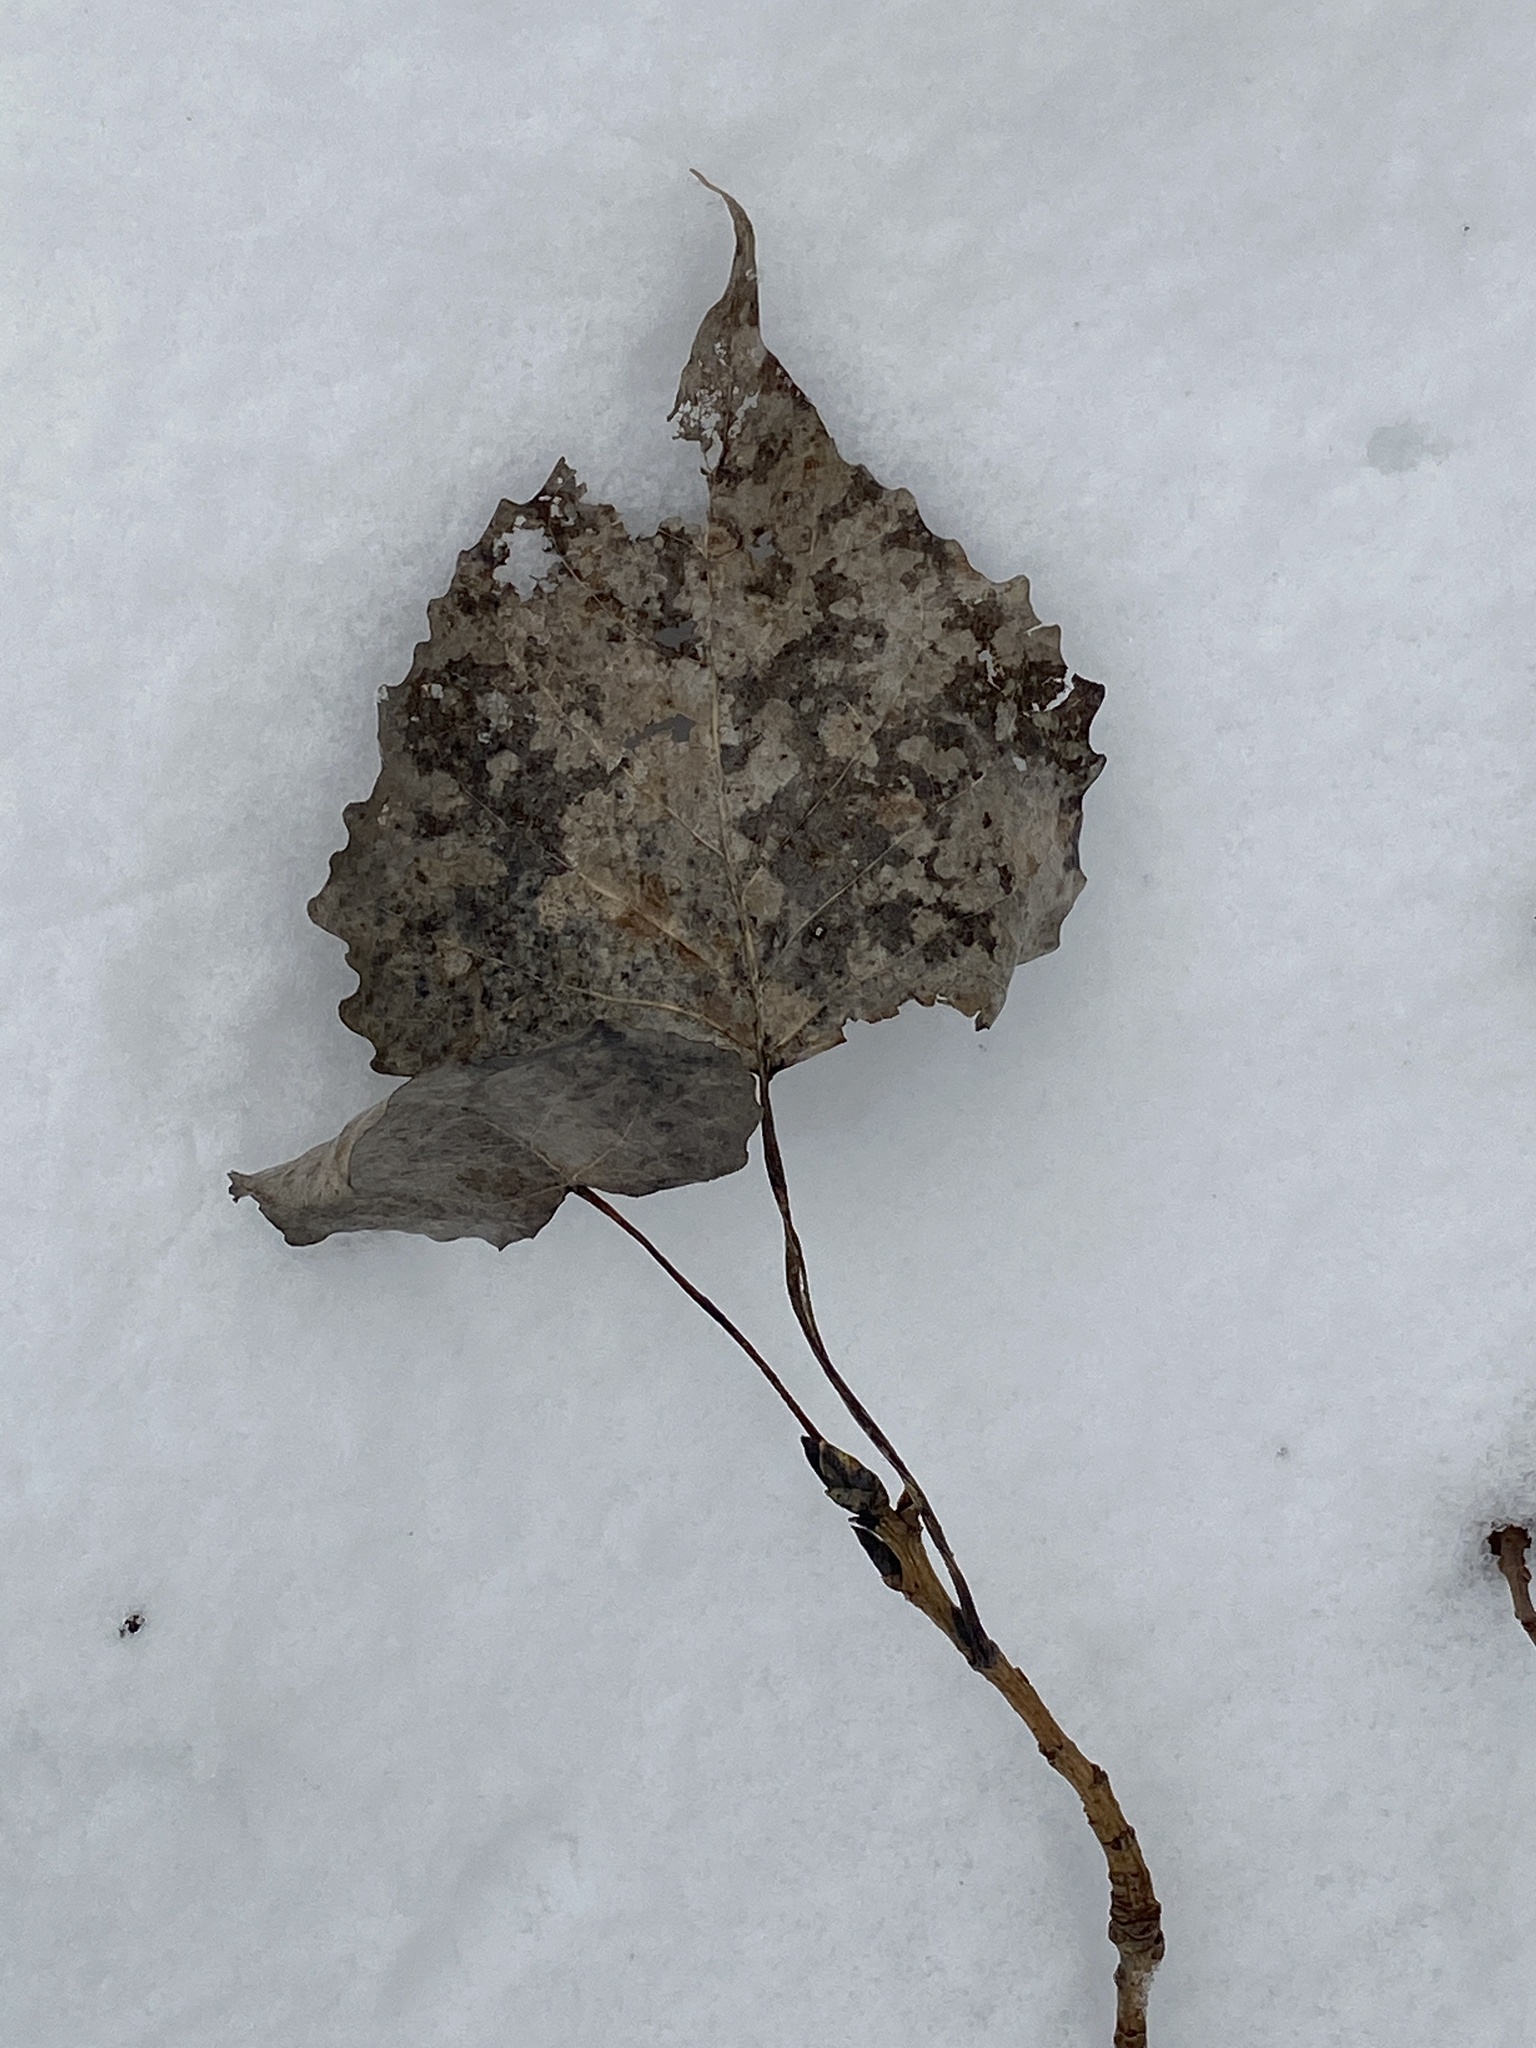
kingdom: Plantae
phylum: Tracheophyta
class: Magnoliopsida
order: Malpighiales
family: Salicaceae
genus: Populus
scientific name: Populus deltoides
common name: Eastern cottonwood
